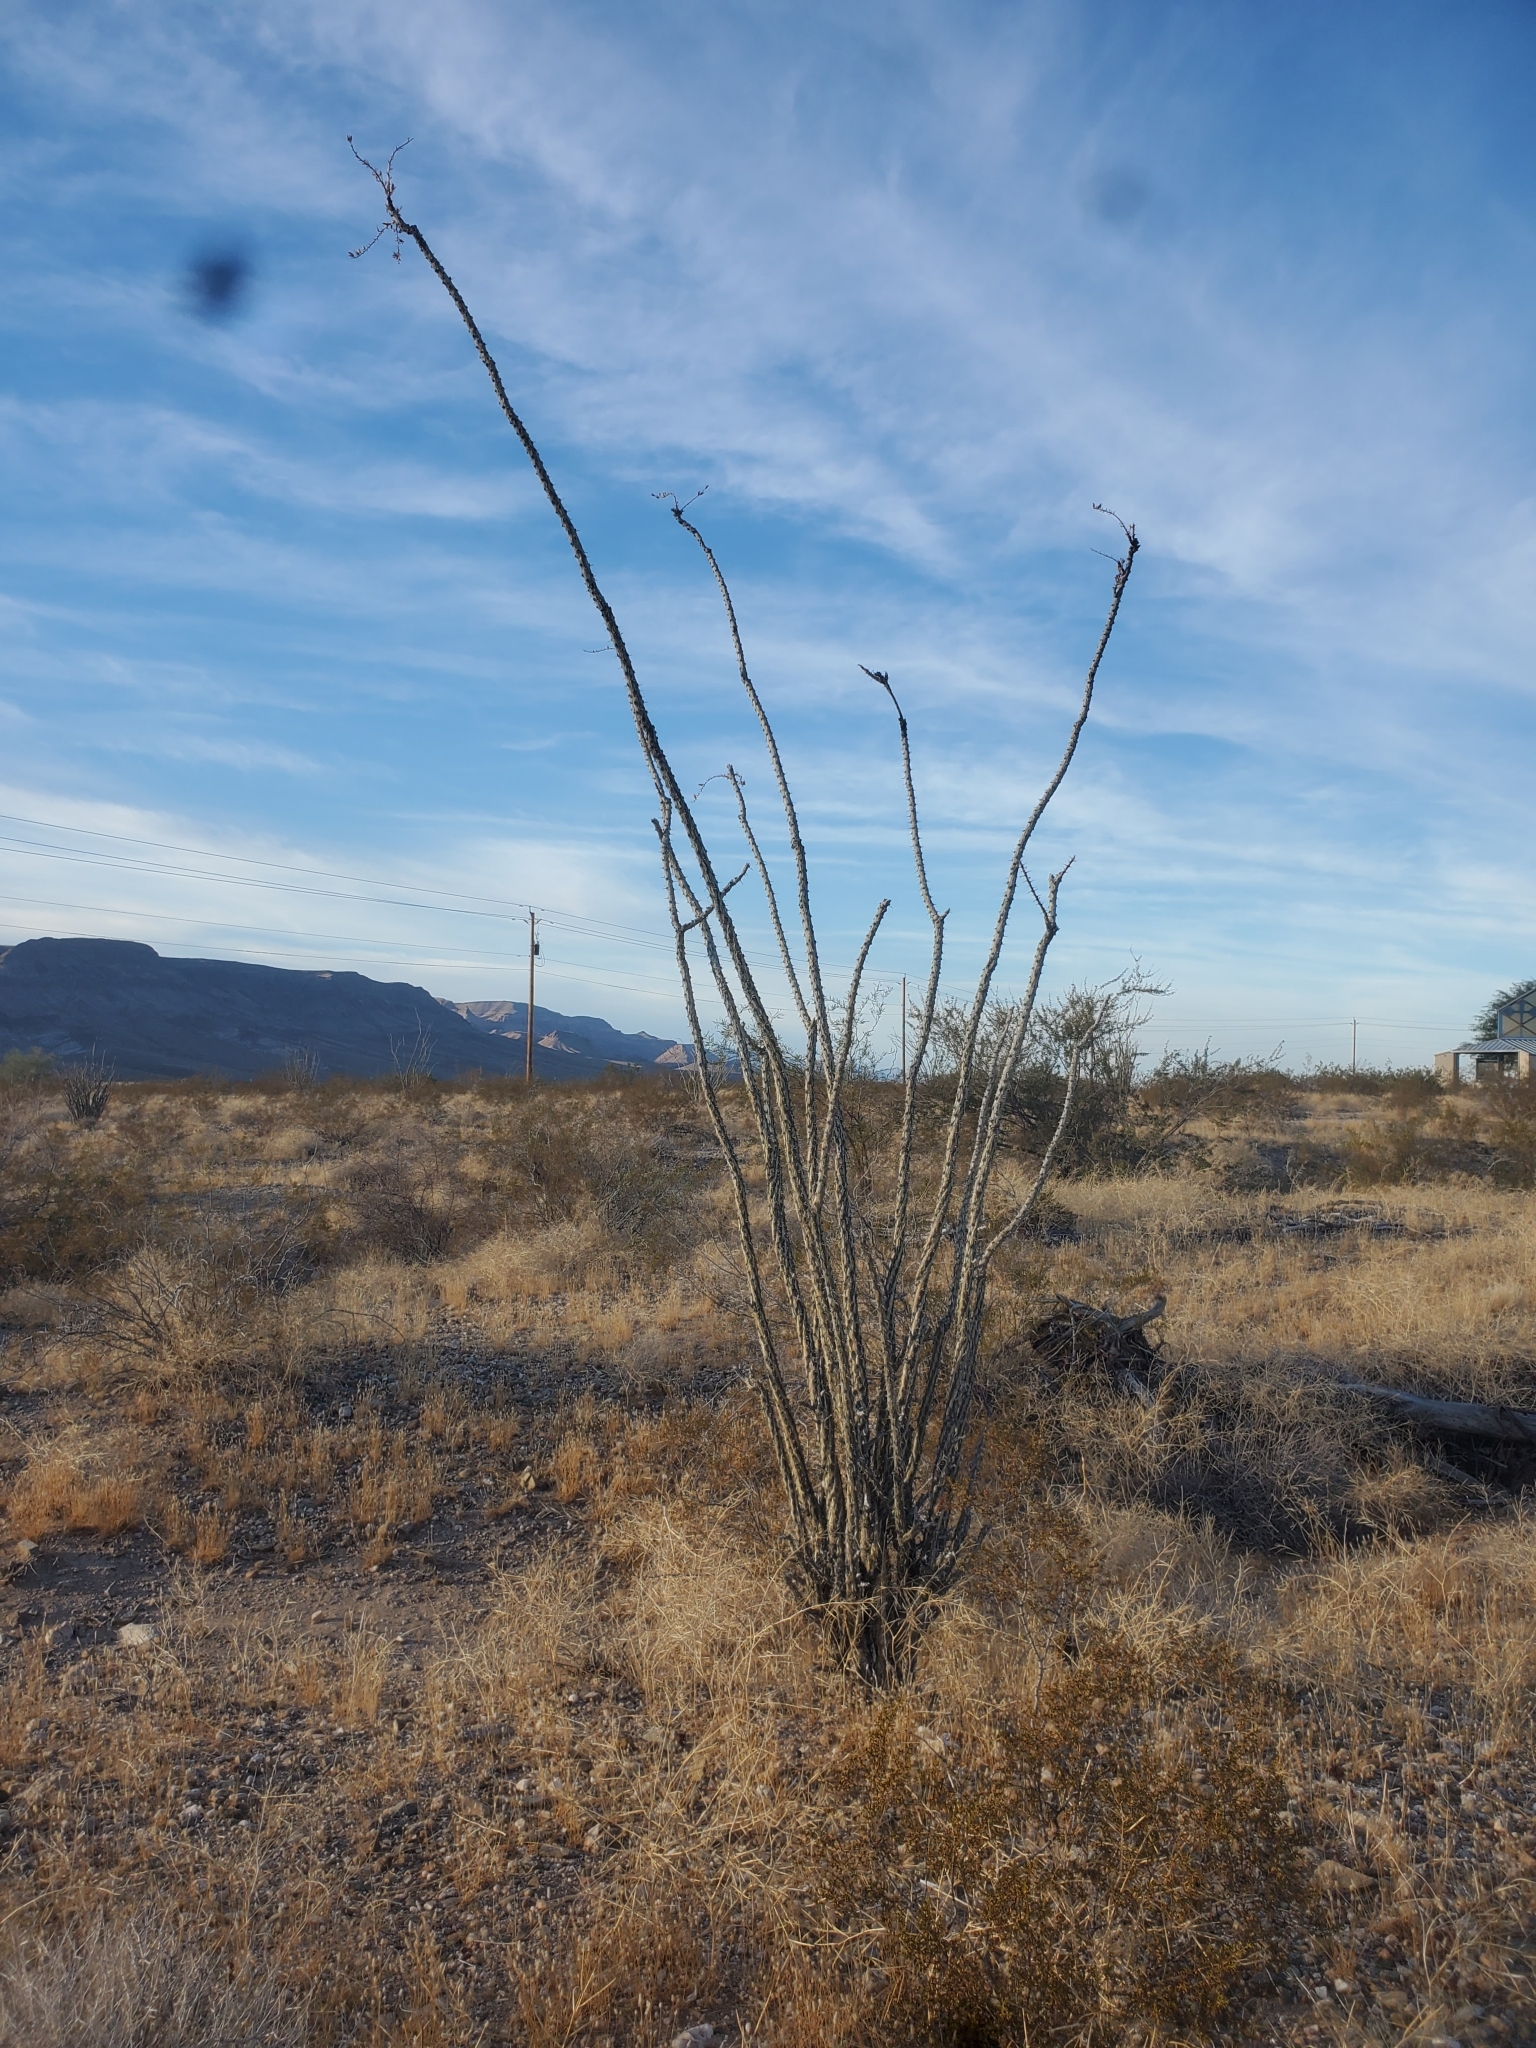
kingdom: Plantae
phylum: Tracheophyta
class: Magnoliopsida
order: Ericales
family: Fouquieriaceae
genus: Fouquieria
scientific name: Fouquieria splendens
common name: Vine-cactus
